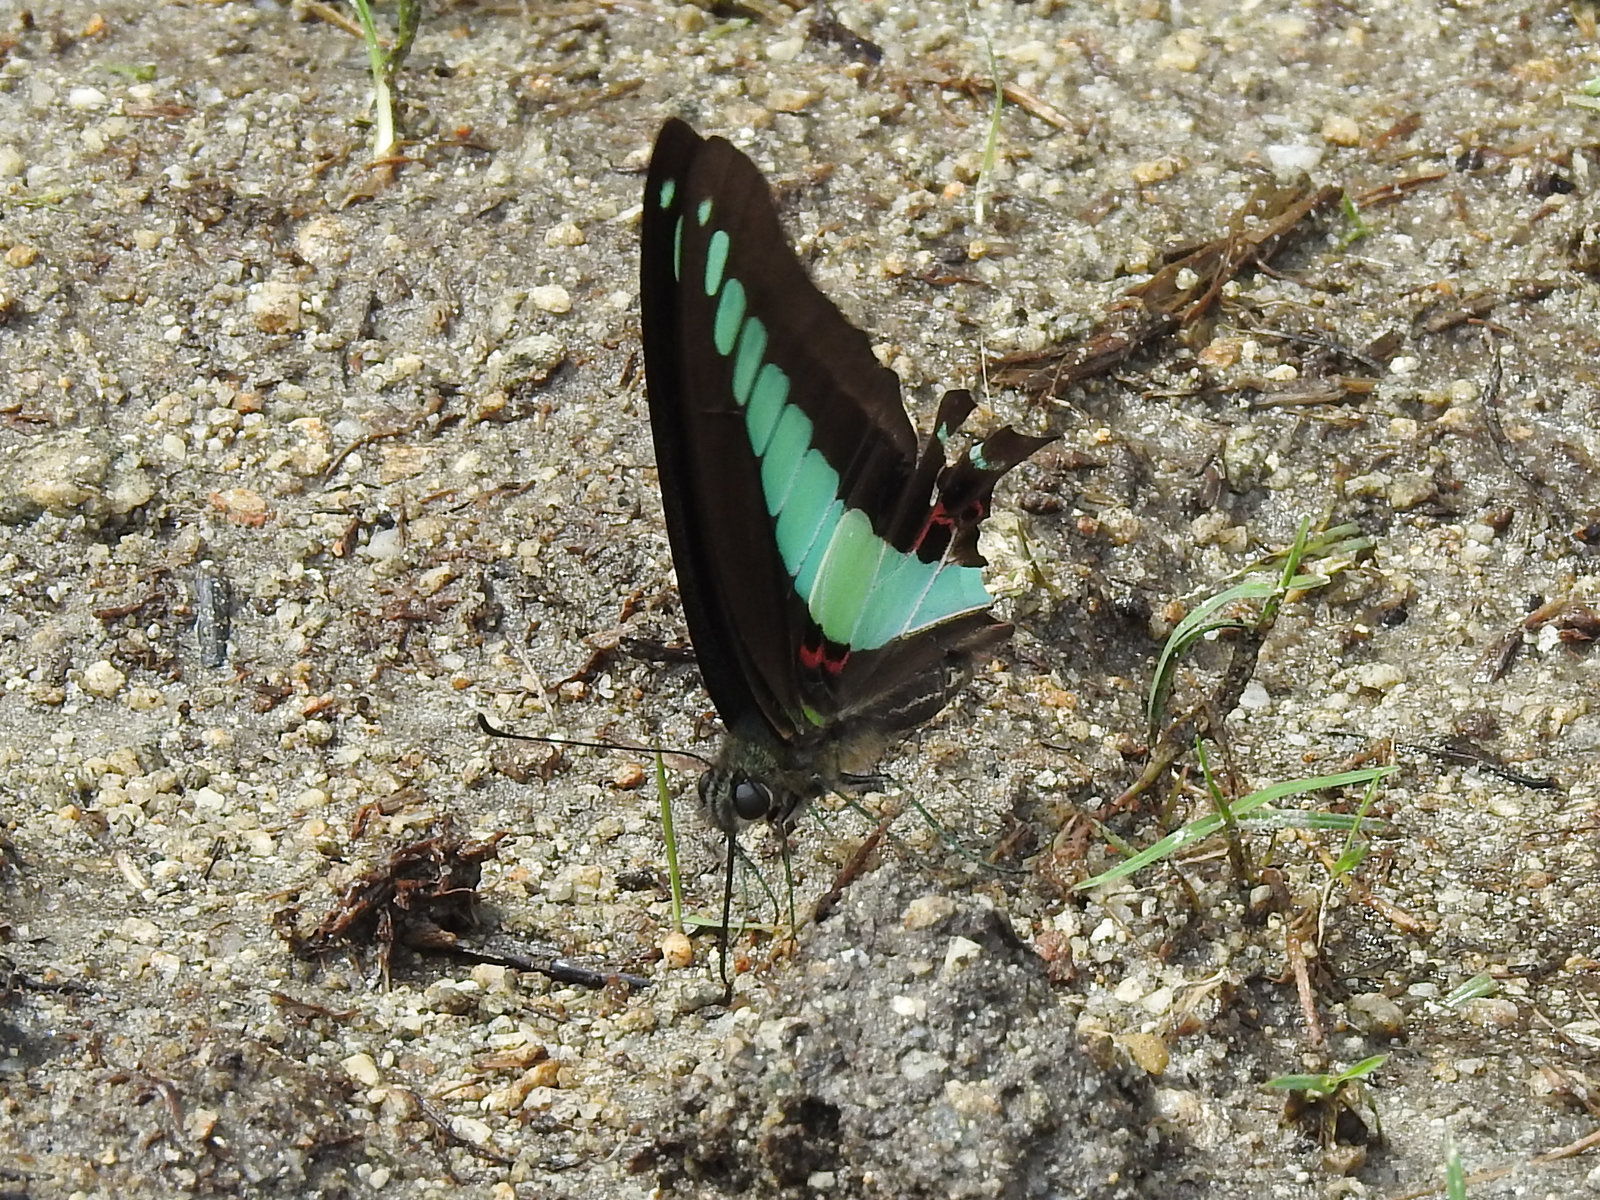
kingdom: Fungi
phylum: Ascomycota
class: Sordariomycetes
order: Microascales
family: Microascaceae
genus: Graphium
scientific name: Graphium sarpedon
